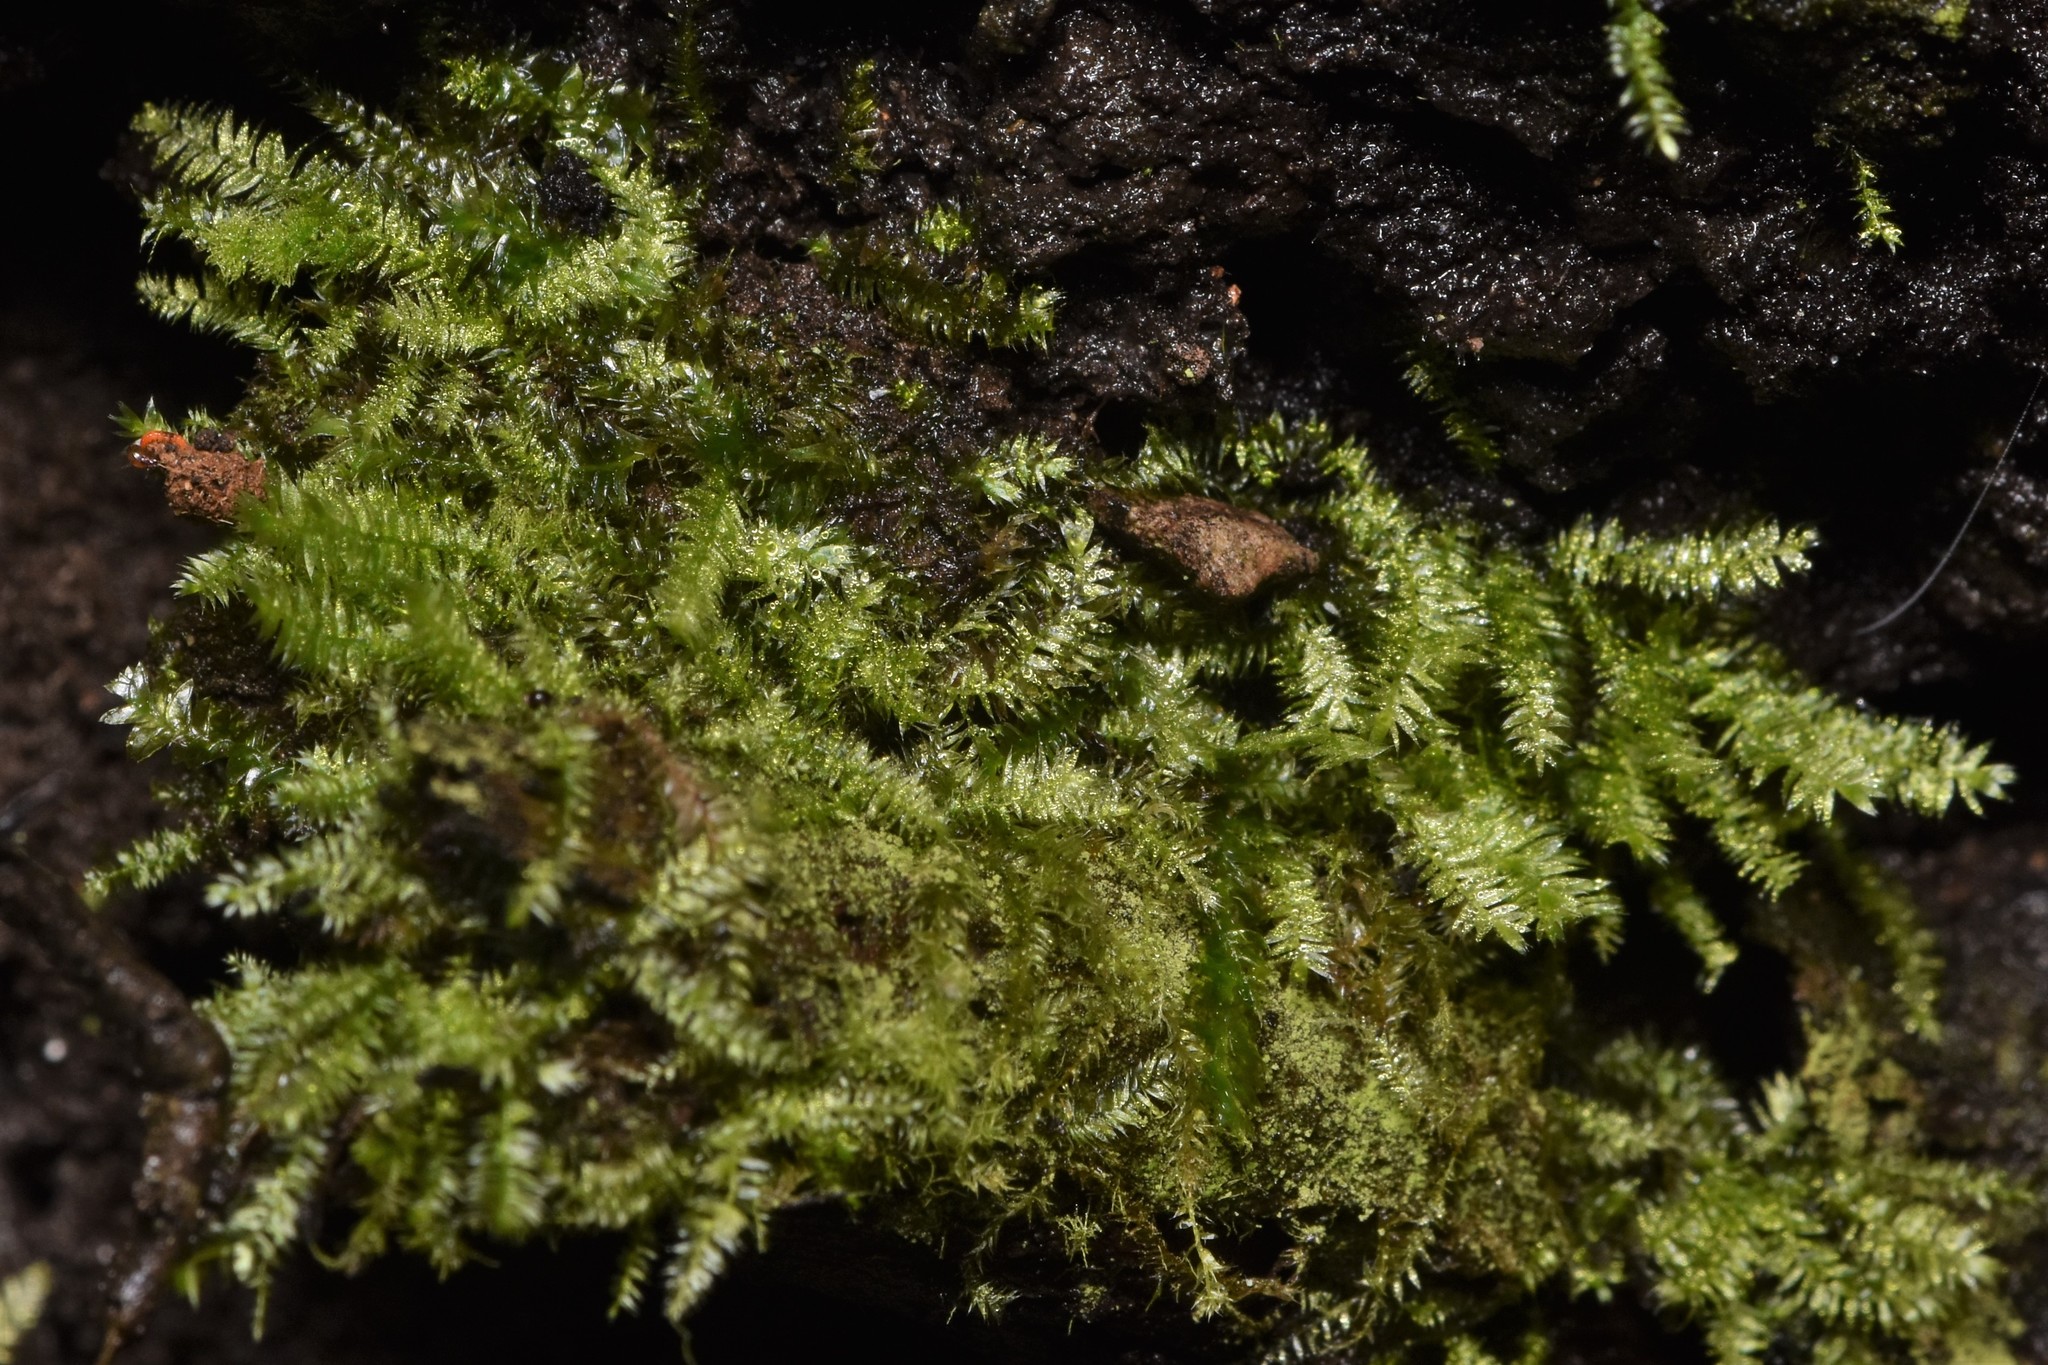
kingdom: Plantae
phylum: Bryophyta
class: Bryopsida
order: Hypnales
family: Plagiotheciaceae
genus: Pseudotaxiphyllum
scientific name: Pseudotaxiphyllum elegans
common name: Elegant silk moss
